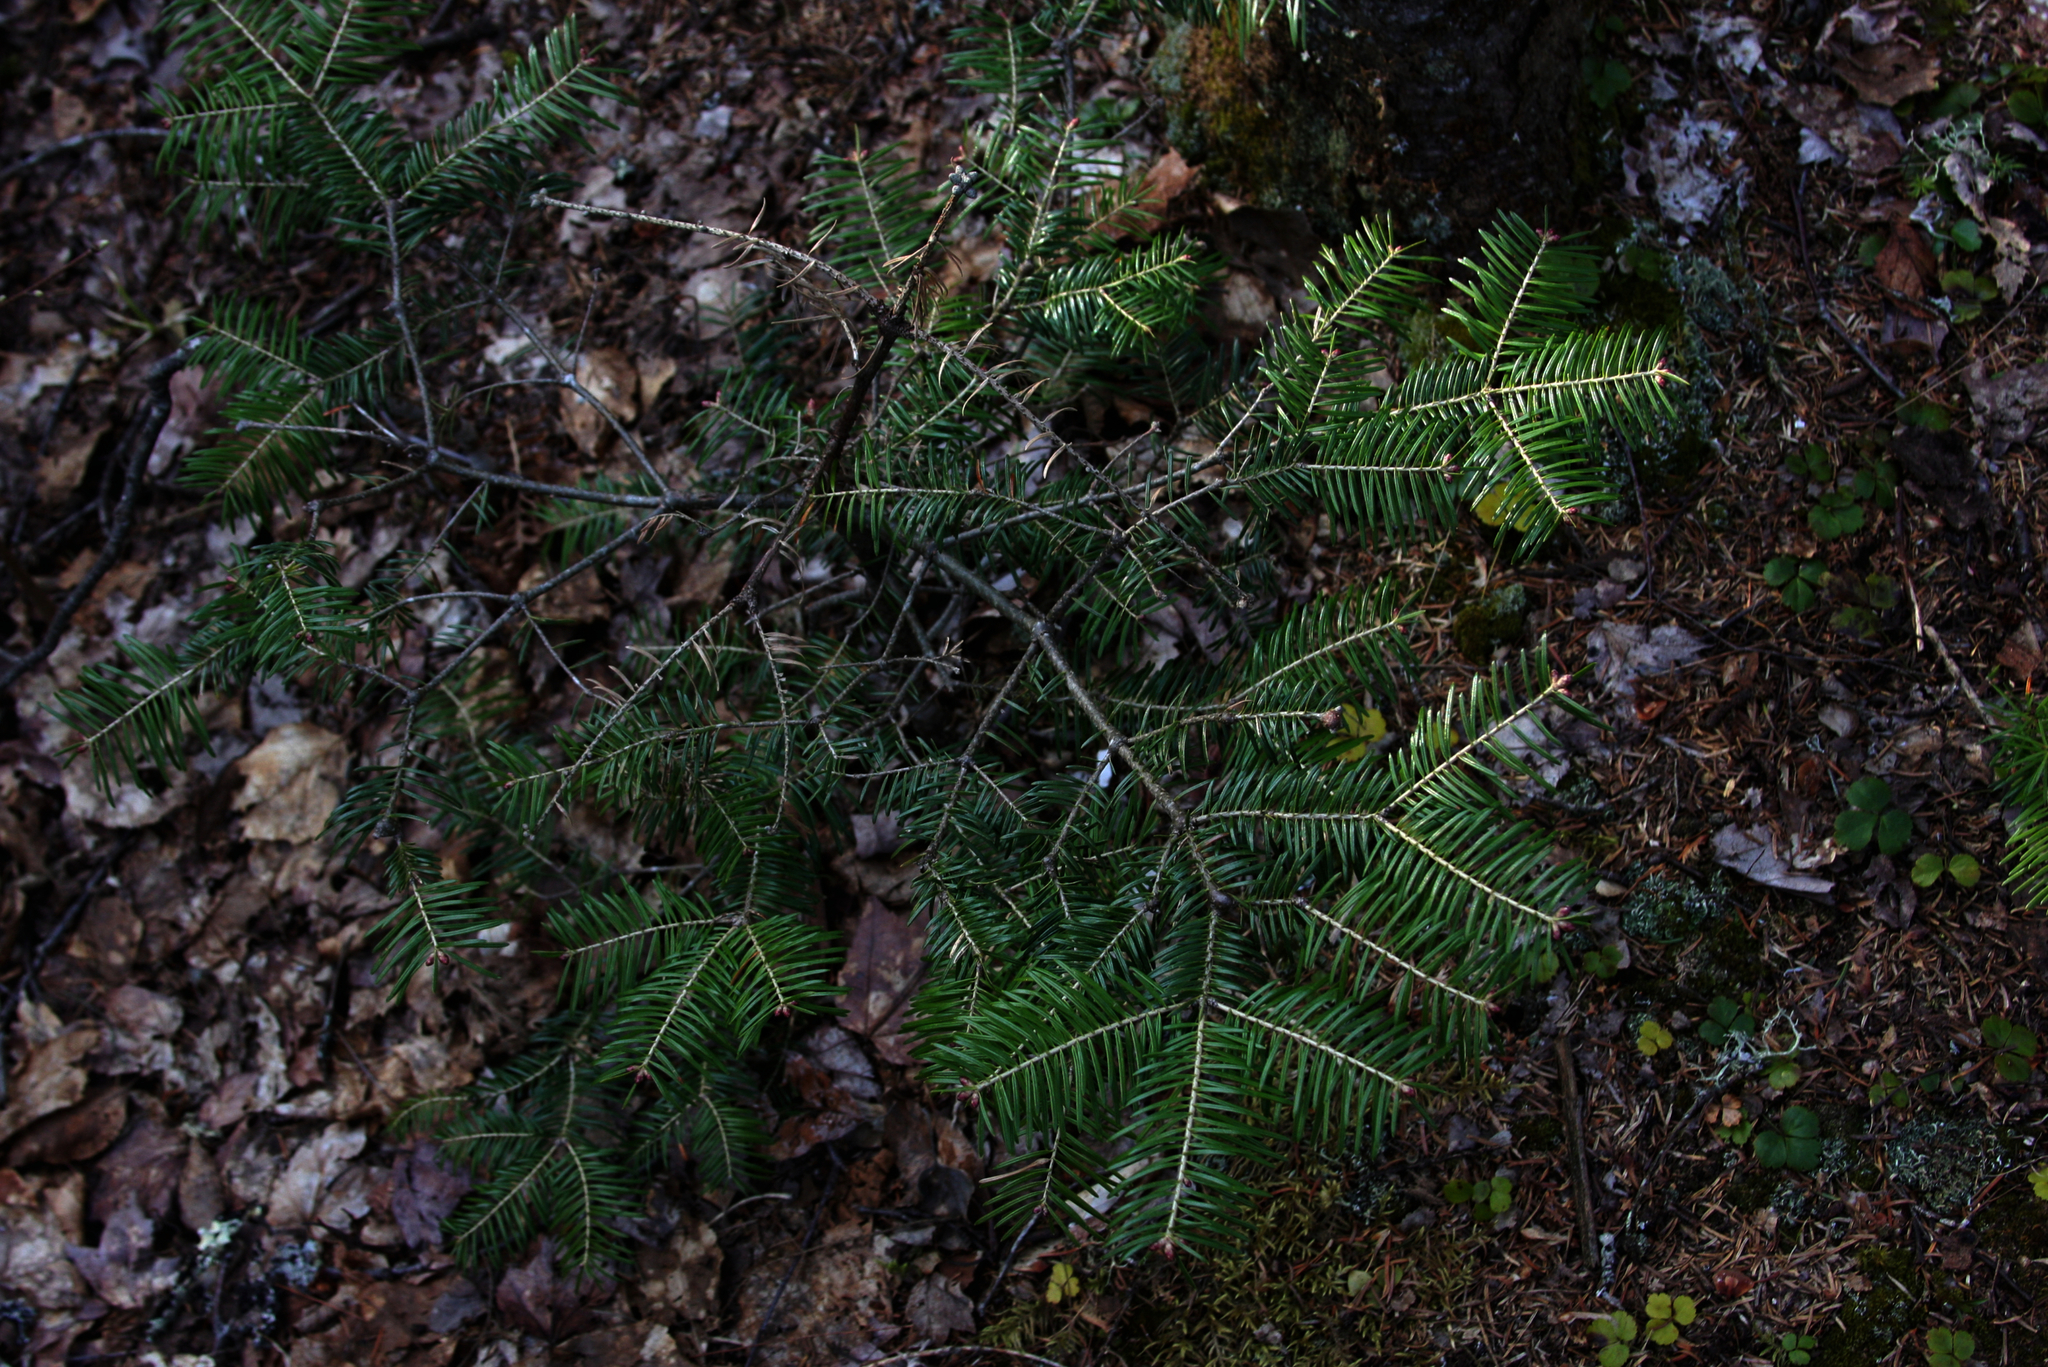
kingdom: Plantae
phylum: Tracheophyta
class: Pinopsida
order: Pinales
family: Pinaceae
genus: Abies
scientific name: Abies balsamea
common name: Balsam fir
